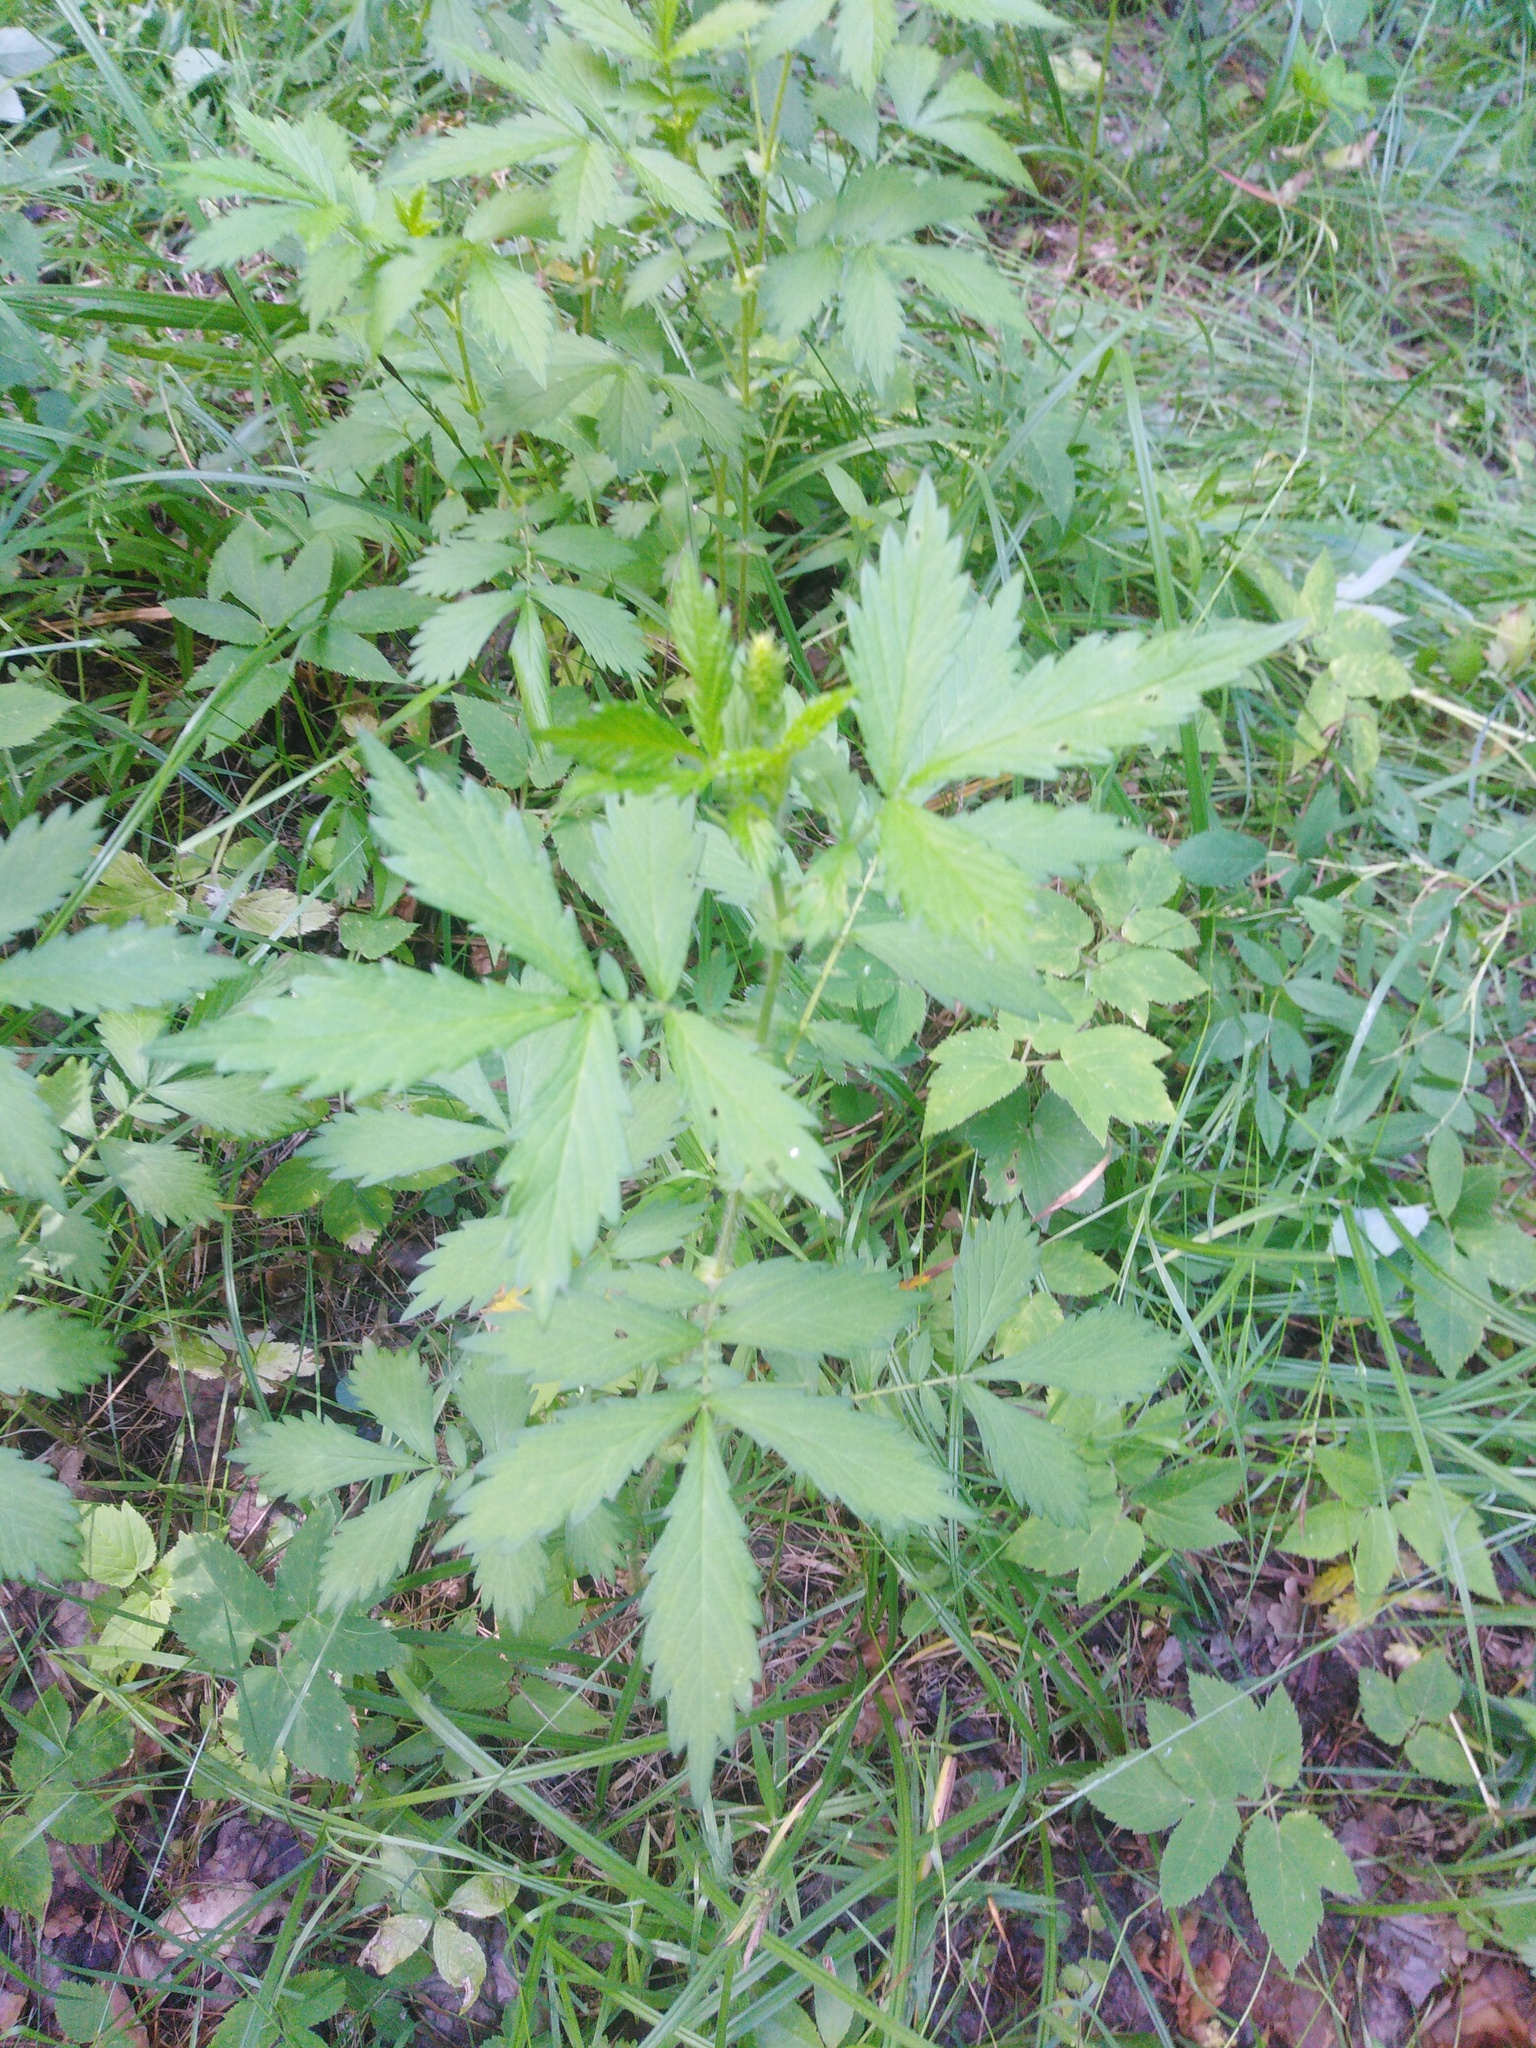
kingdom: Plantae
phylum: Tracheophyta
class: Magnoliopsida
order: Rosales
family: Rosaceae
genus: Agrimonia
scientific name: Agrimonia pilosa
